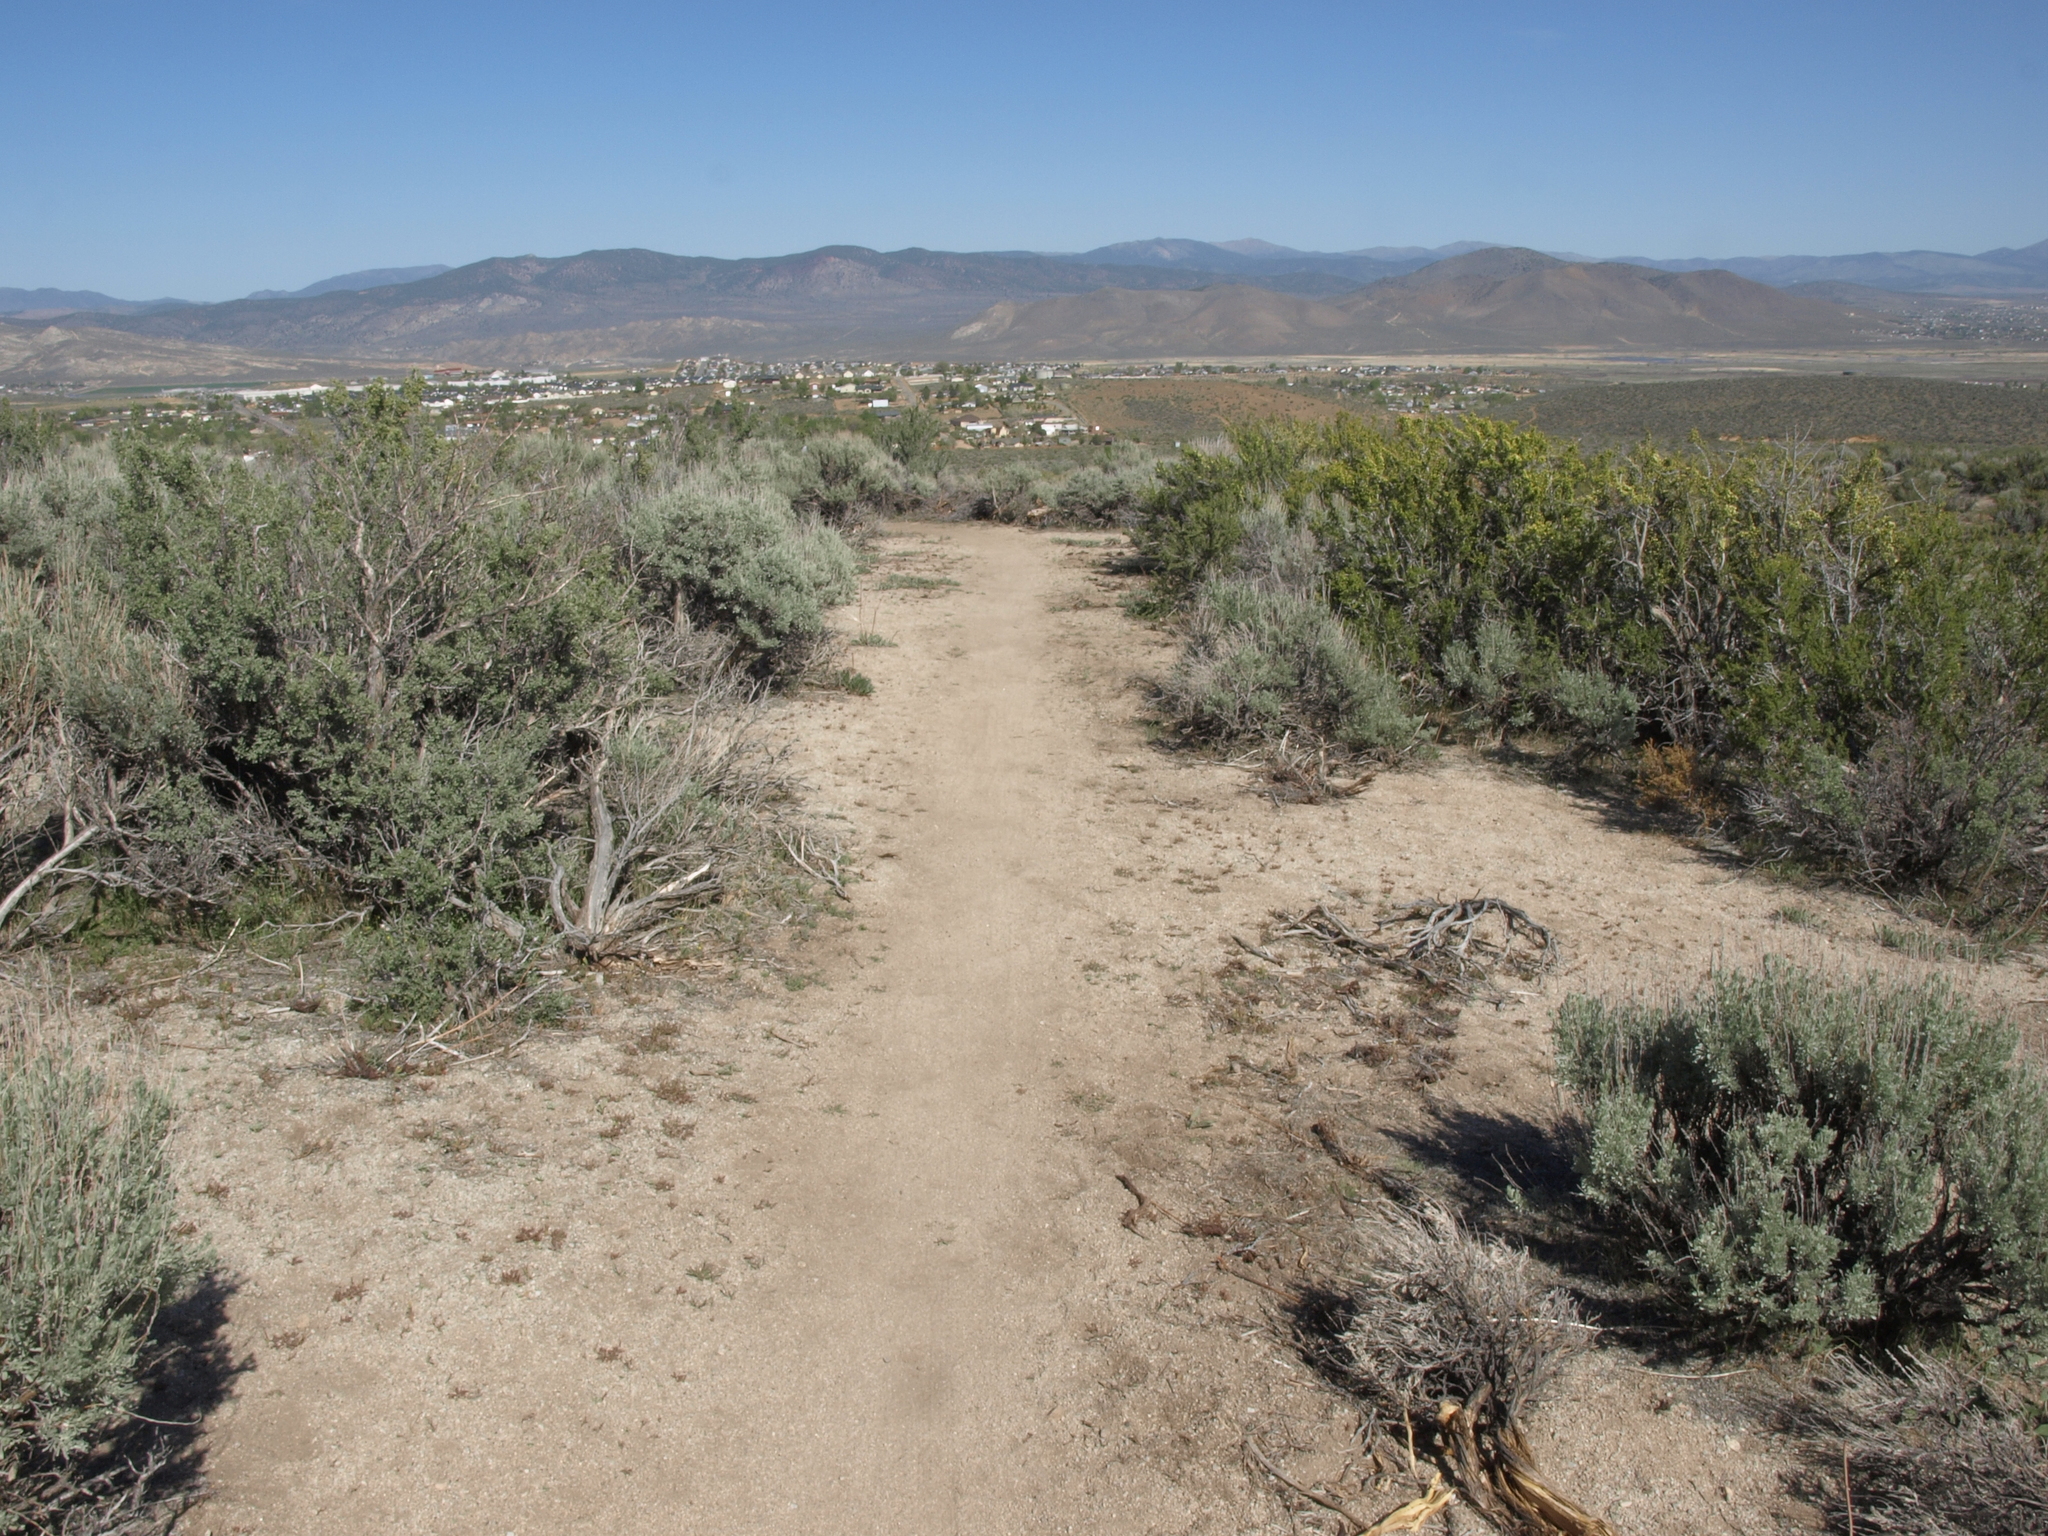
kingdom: Plantae
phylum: Tracheophyta
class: Magnoliopsida
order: Rosales
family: Rosaceae
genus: Purshia
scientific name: Purshia tridentata
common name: Antelope bitterbrush
